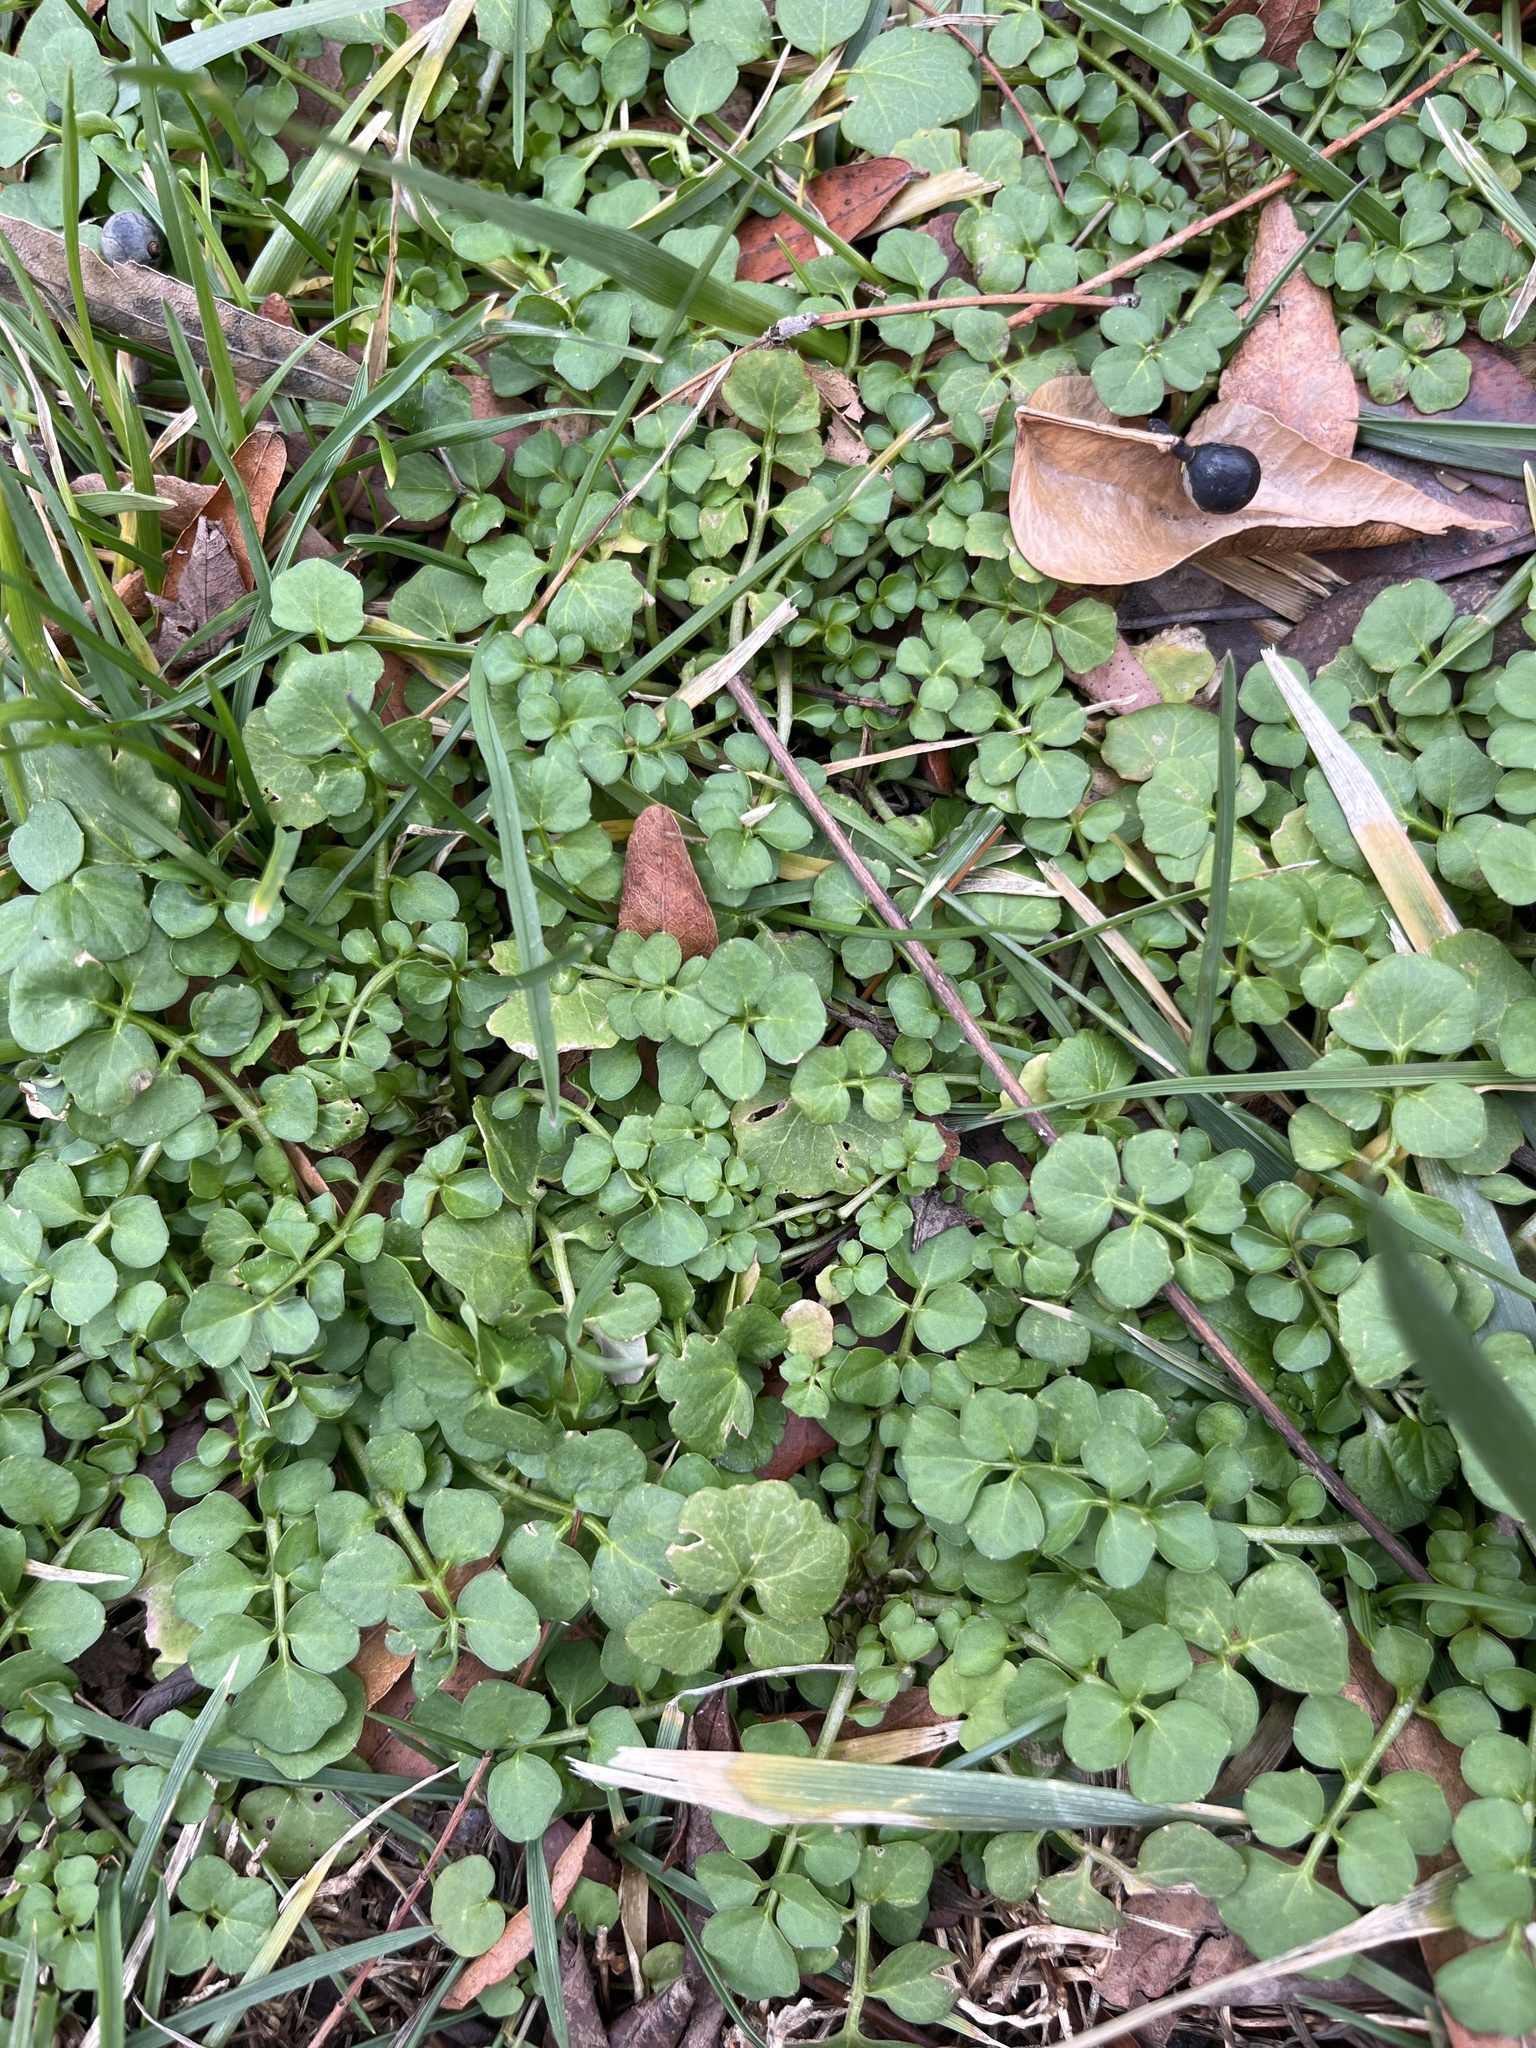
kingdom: Plantae
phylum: Tracheophyta
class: Magnoliopsida
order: Brassicales
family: Brassicaceae
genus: Cardamine
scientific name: Cardamine hirsuta
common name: Hairy bittercress
